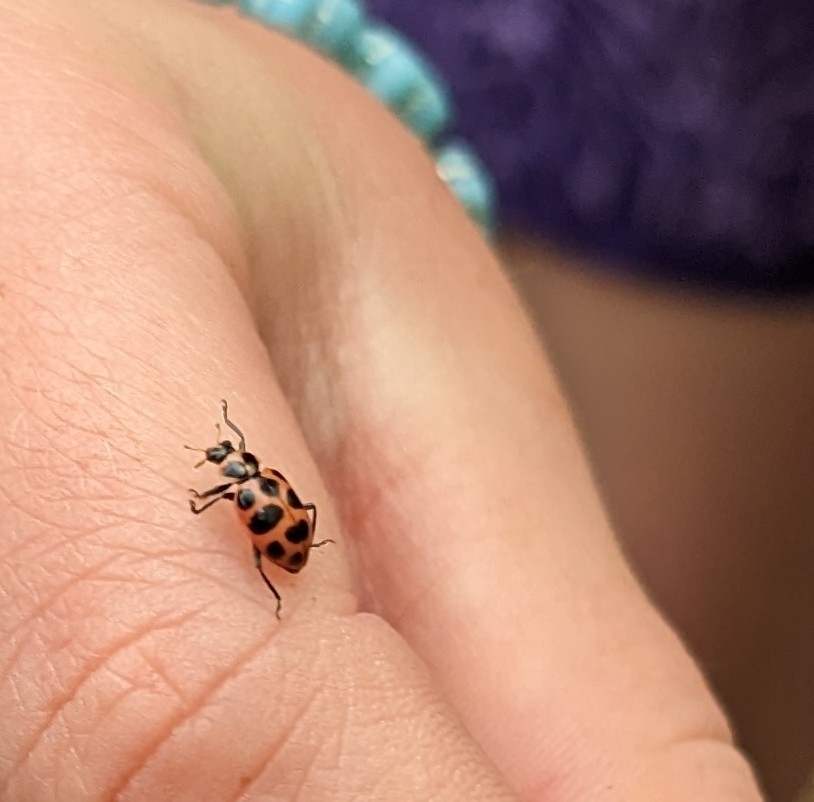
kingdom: Animalia
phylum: Arthropoda
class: Insecta
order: Coleoptera
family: Coccinellidae
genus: Coleomegilla
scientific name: Coleomegilla maculata
